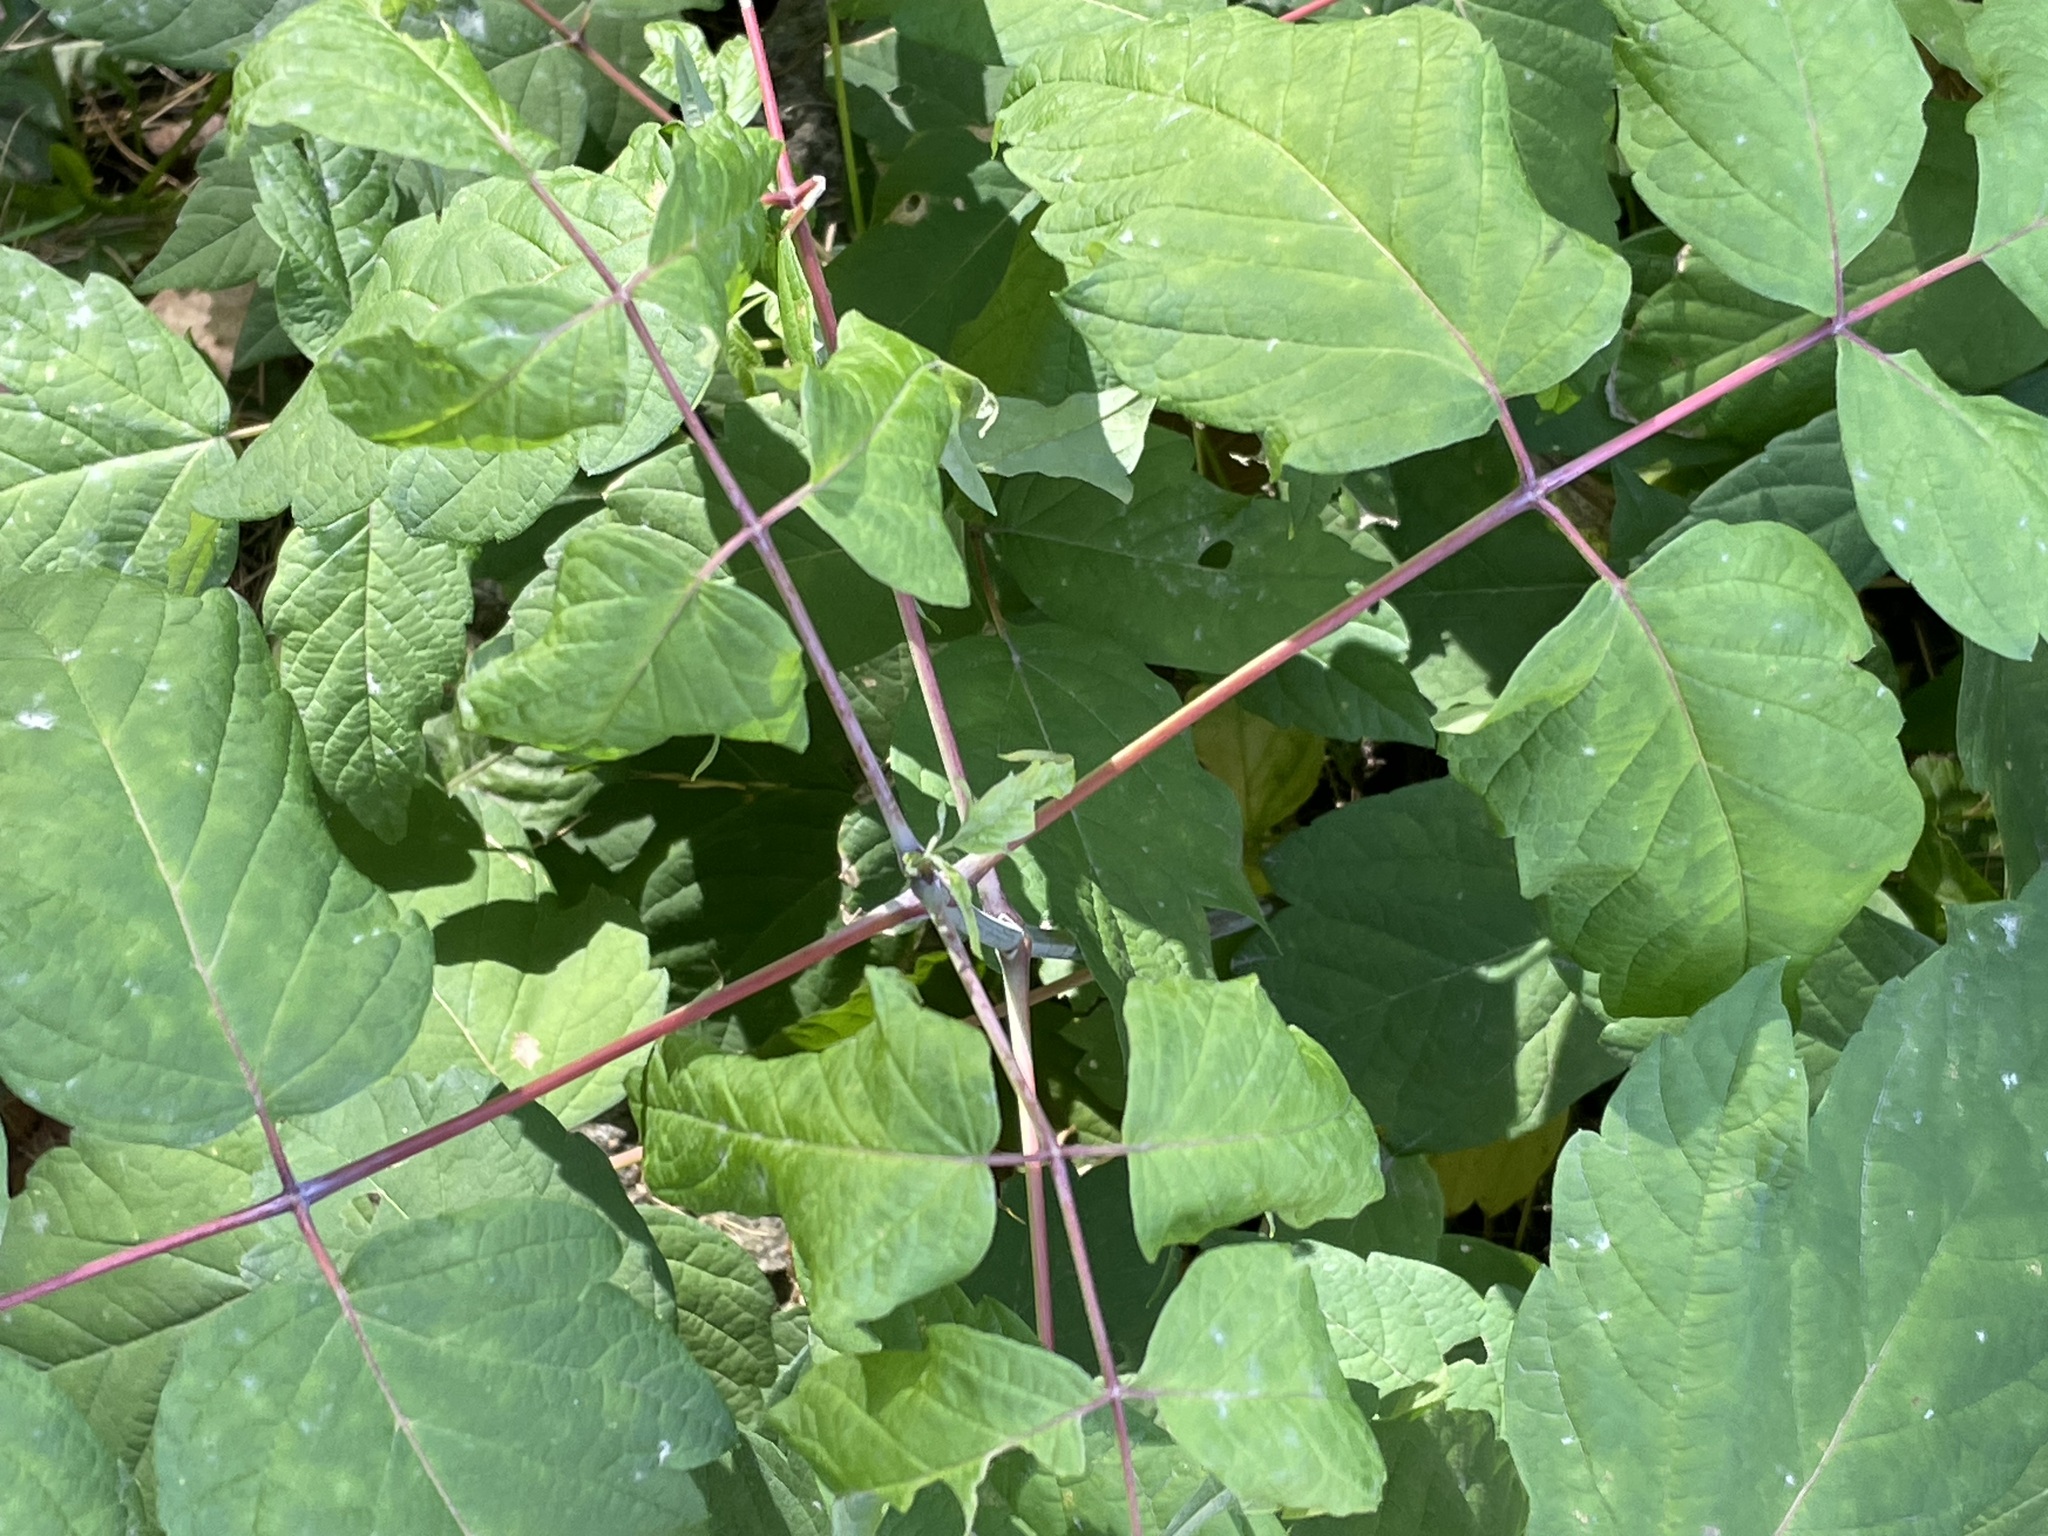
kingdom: Plantae
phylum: Tracheophyta
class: Magnoliopsida
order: Sapindales
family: Sapindaceae
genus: Acer
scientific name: Acer negundo
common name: Ashleaf maple
